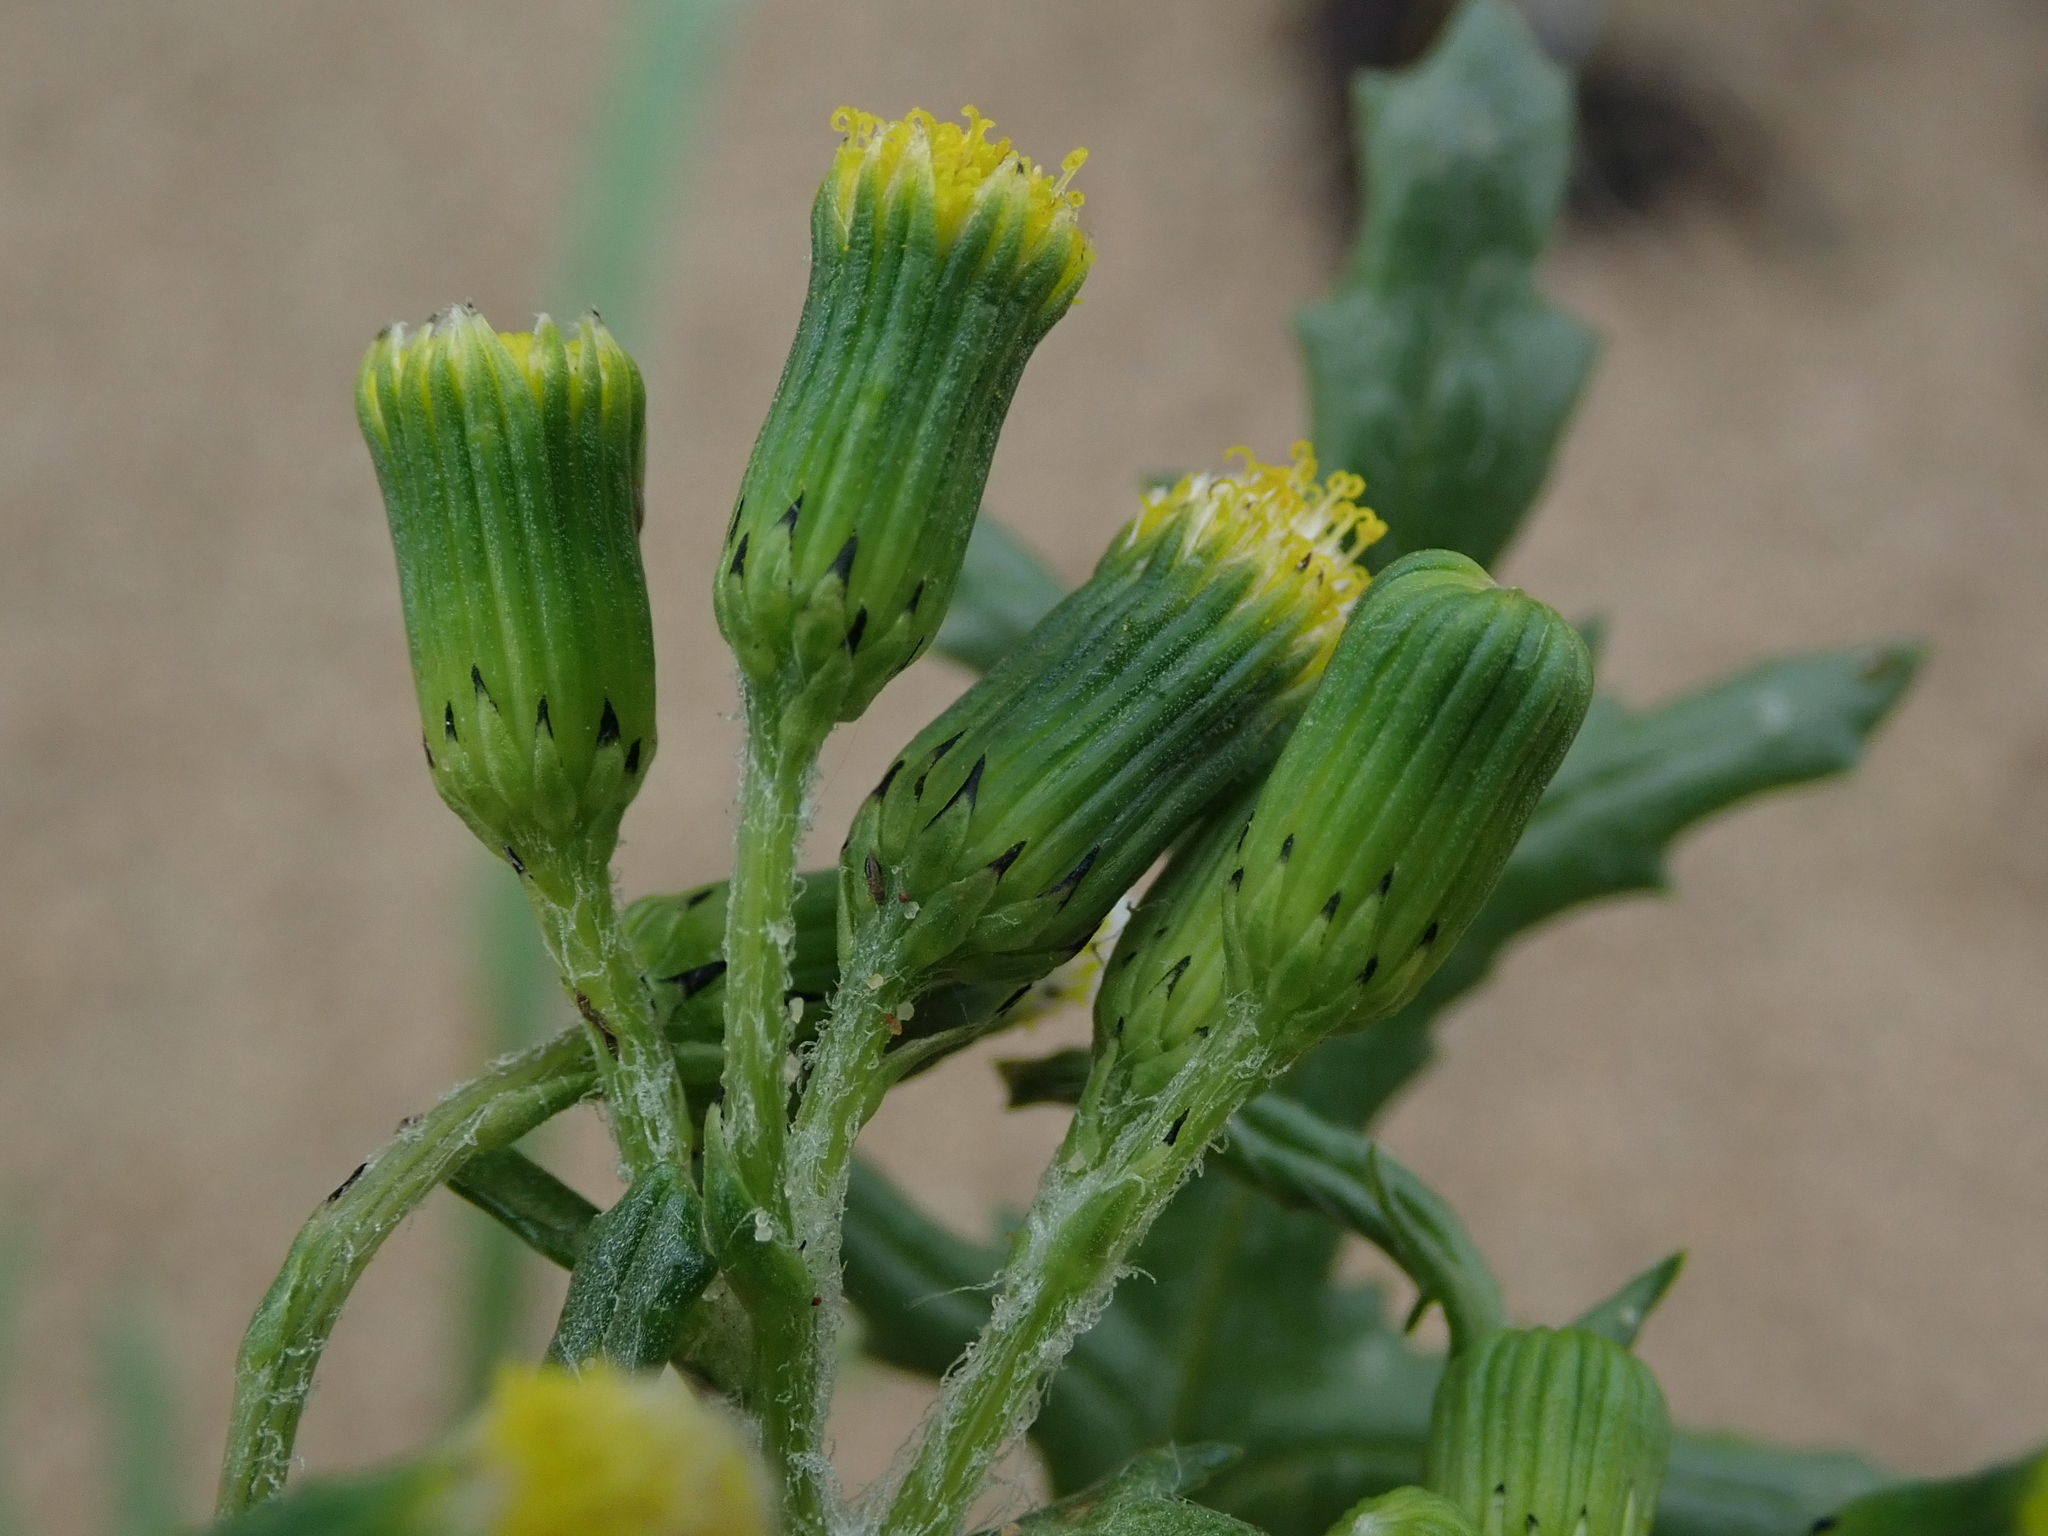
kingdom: Plantae
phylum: Tracheophyta
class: Magnoliopsida
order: Asterales
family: Asteraceae
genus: Senecio
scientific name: Senecio vulgaris
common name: Old-man-in-the-spring
